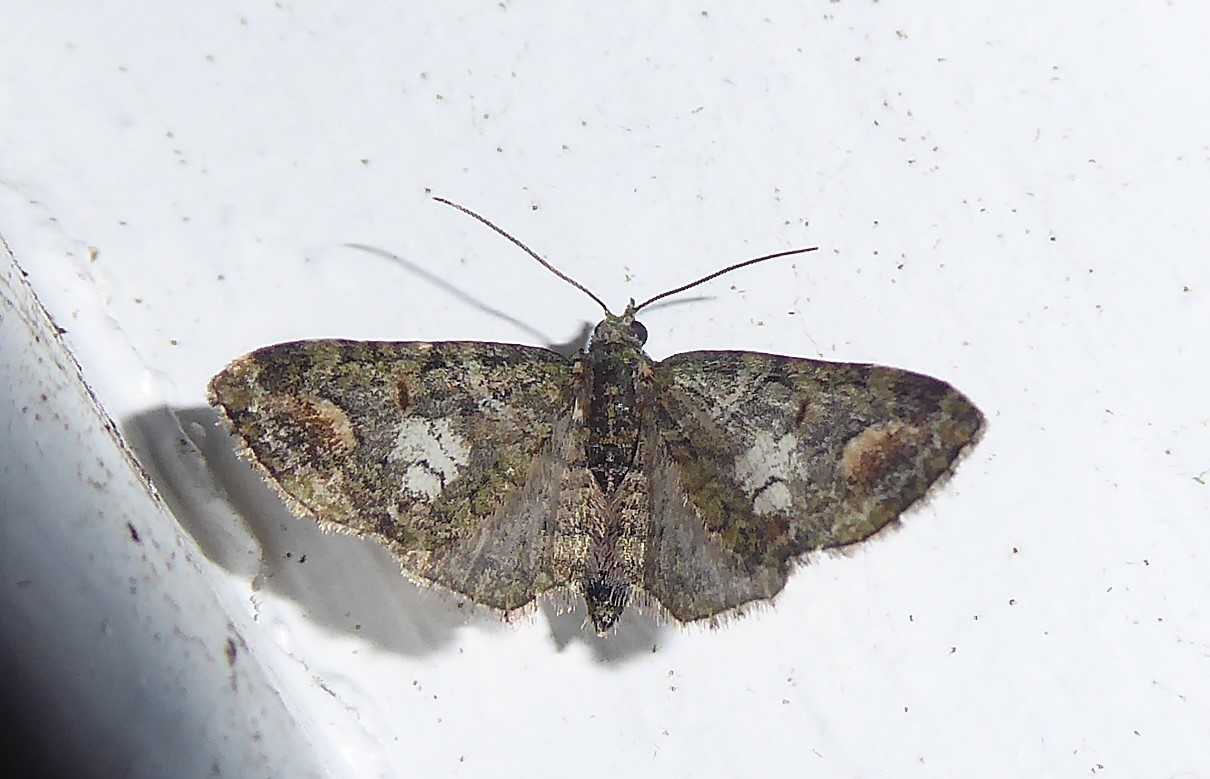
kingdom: Animalia
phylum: Arthropoda
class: Insecta
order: Lepidoptera
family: Geometridae
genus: Idaea
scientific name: Idaea mutanda
